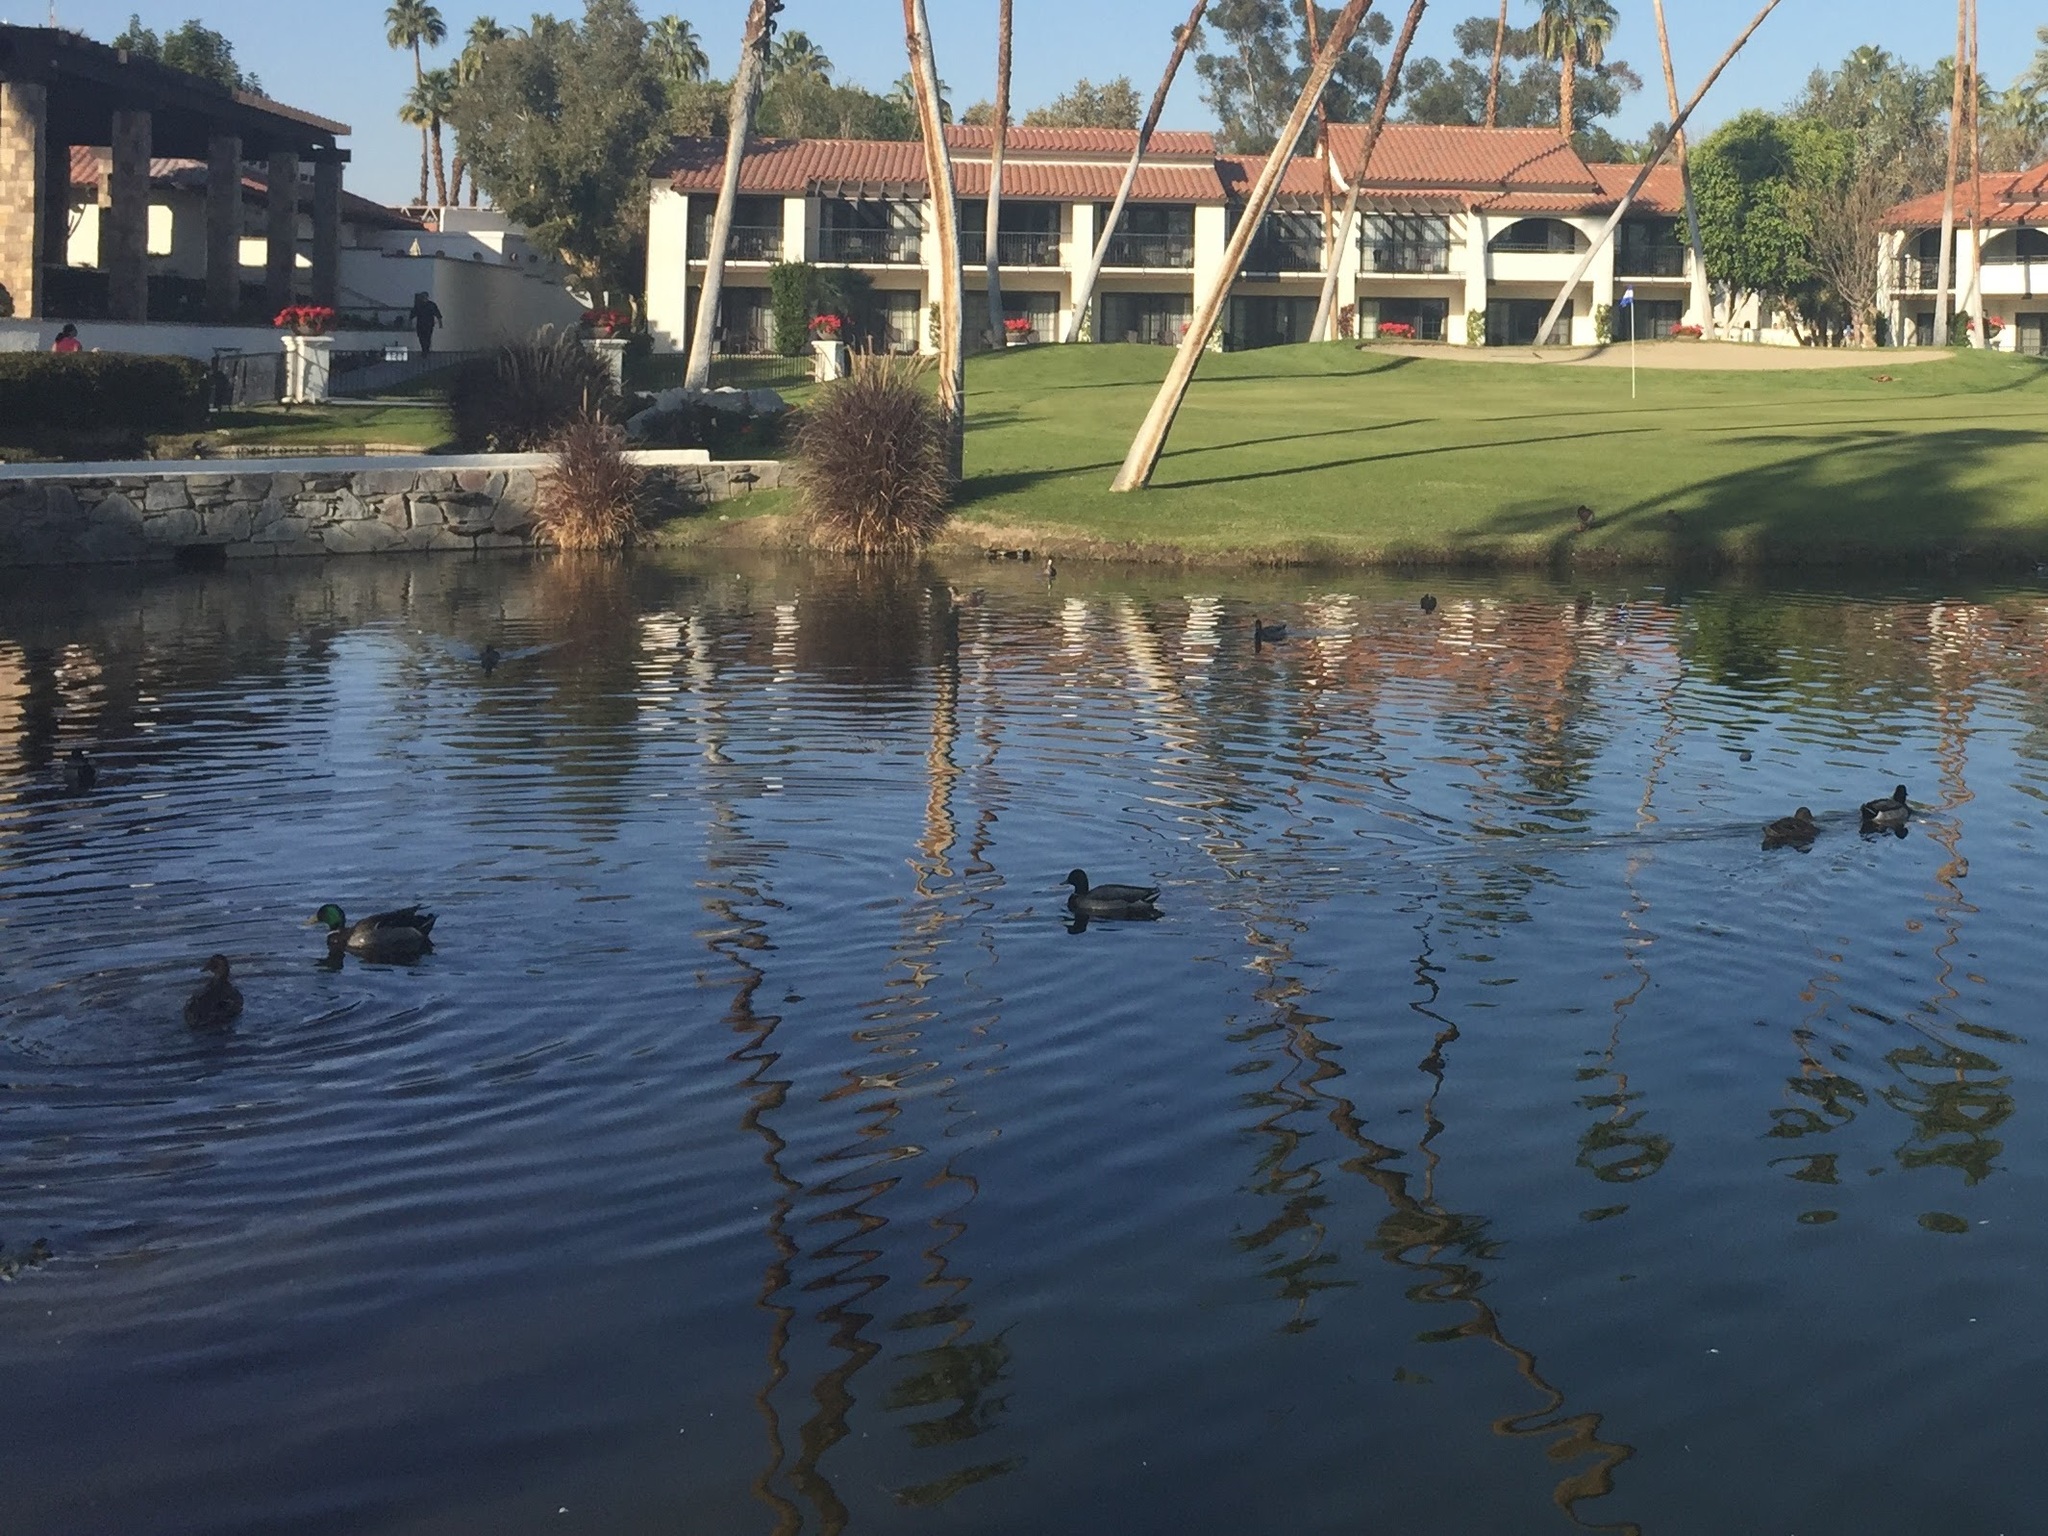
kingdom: Animalia
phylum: Chordata
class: Aves
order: Anseriformes
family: Anatidae
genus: Anas
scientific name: Anas platyrhynchos
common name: Mallard
